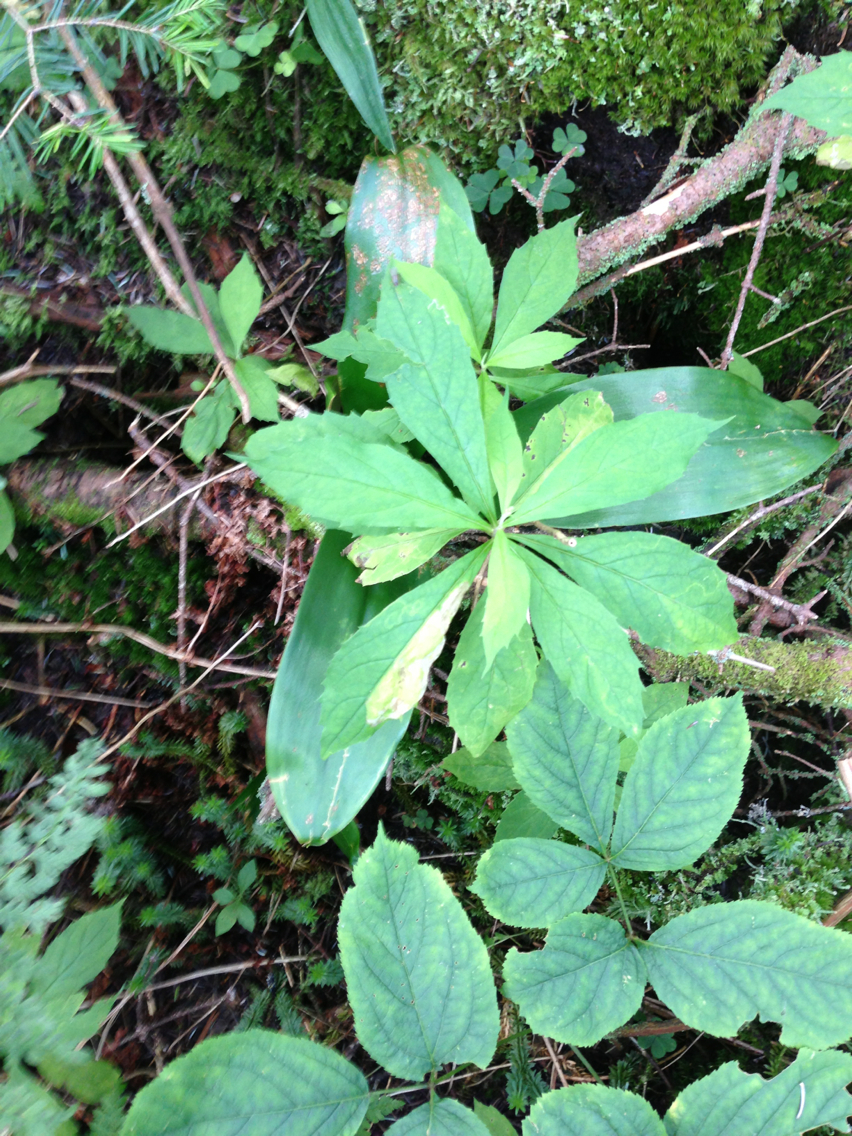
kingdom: Plantae
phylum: Tracheophyta
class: Magnoliopsida
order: Asterales
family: Asteraceae
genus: Oclemena
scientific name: Oclemena acuminata
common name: Mountain aster
